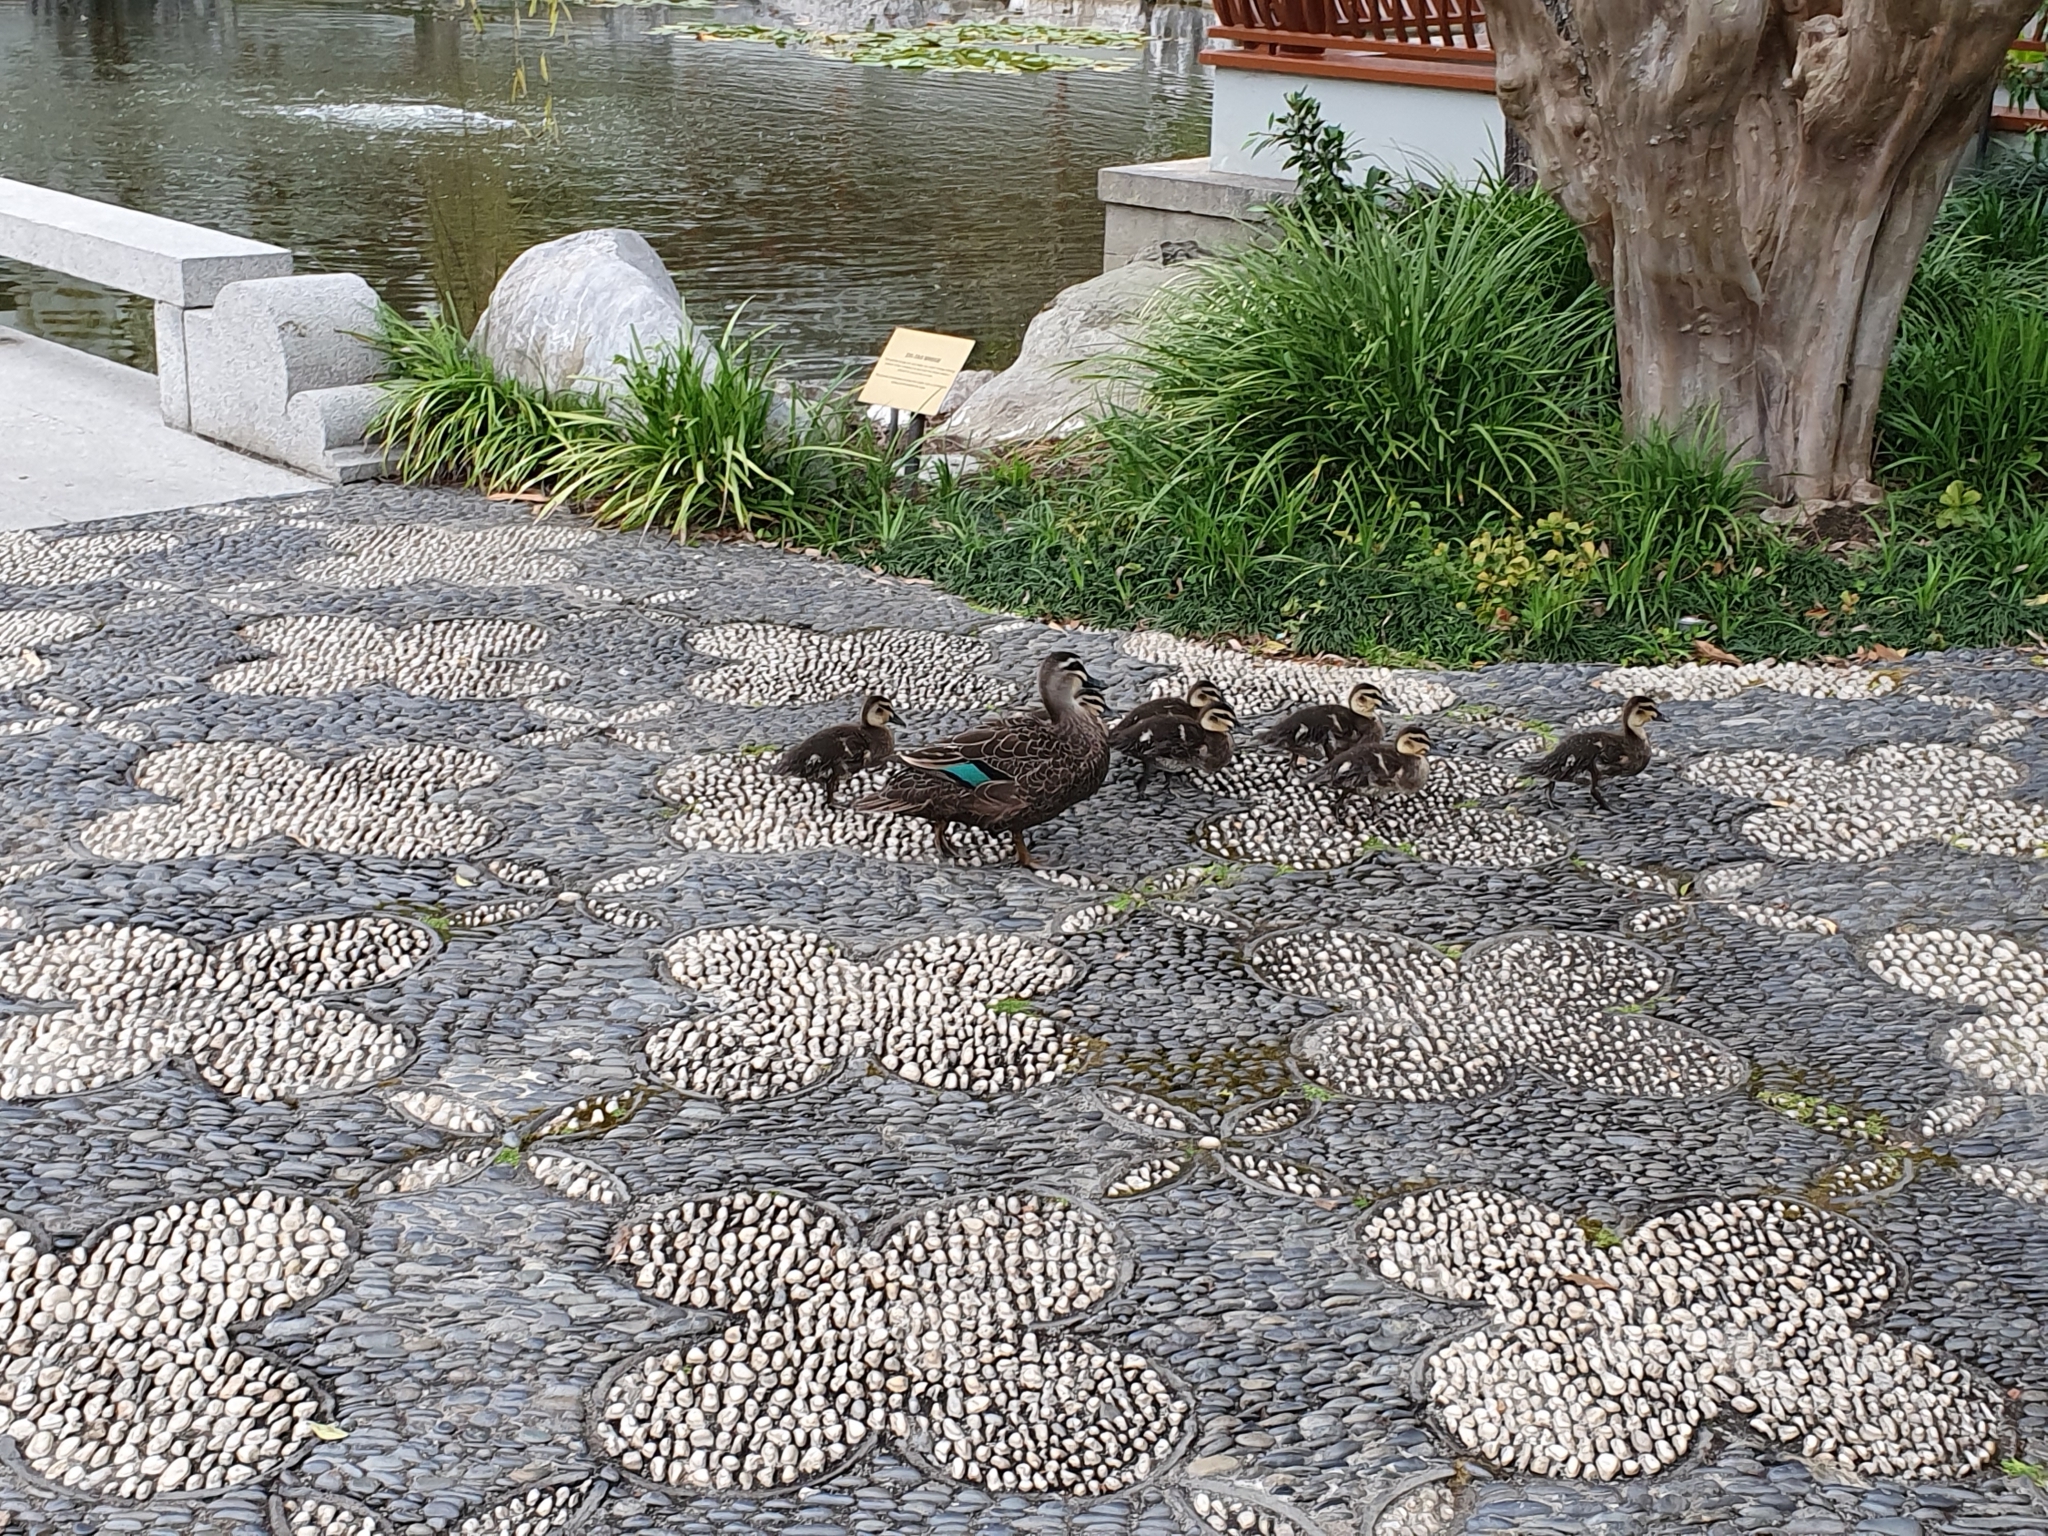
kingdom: Animalia
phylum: Chordata
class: Aves
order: Anseriformes
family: Anatidae
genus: Anas
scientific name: Anas superciliosa
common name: Pacific black duck
